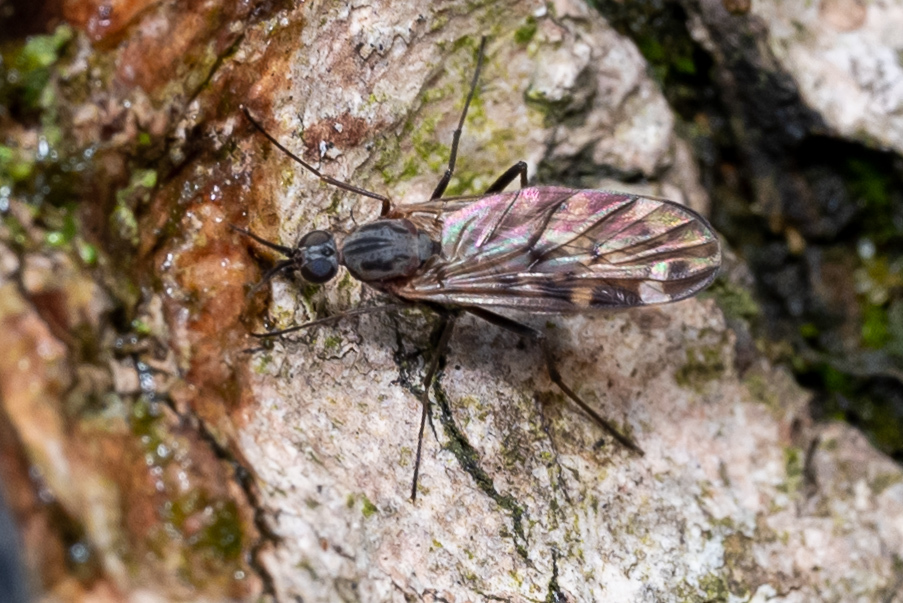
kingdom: Animalia
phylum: Arthropoda
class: Insecta
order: Diptera
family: Anisopodidae
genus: Sylvicola
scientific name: Sylvicola alternata
